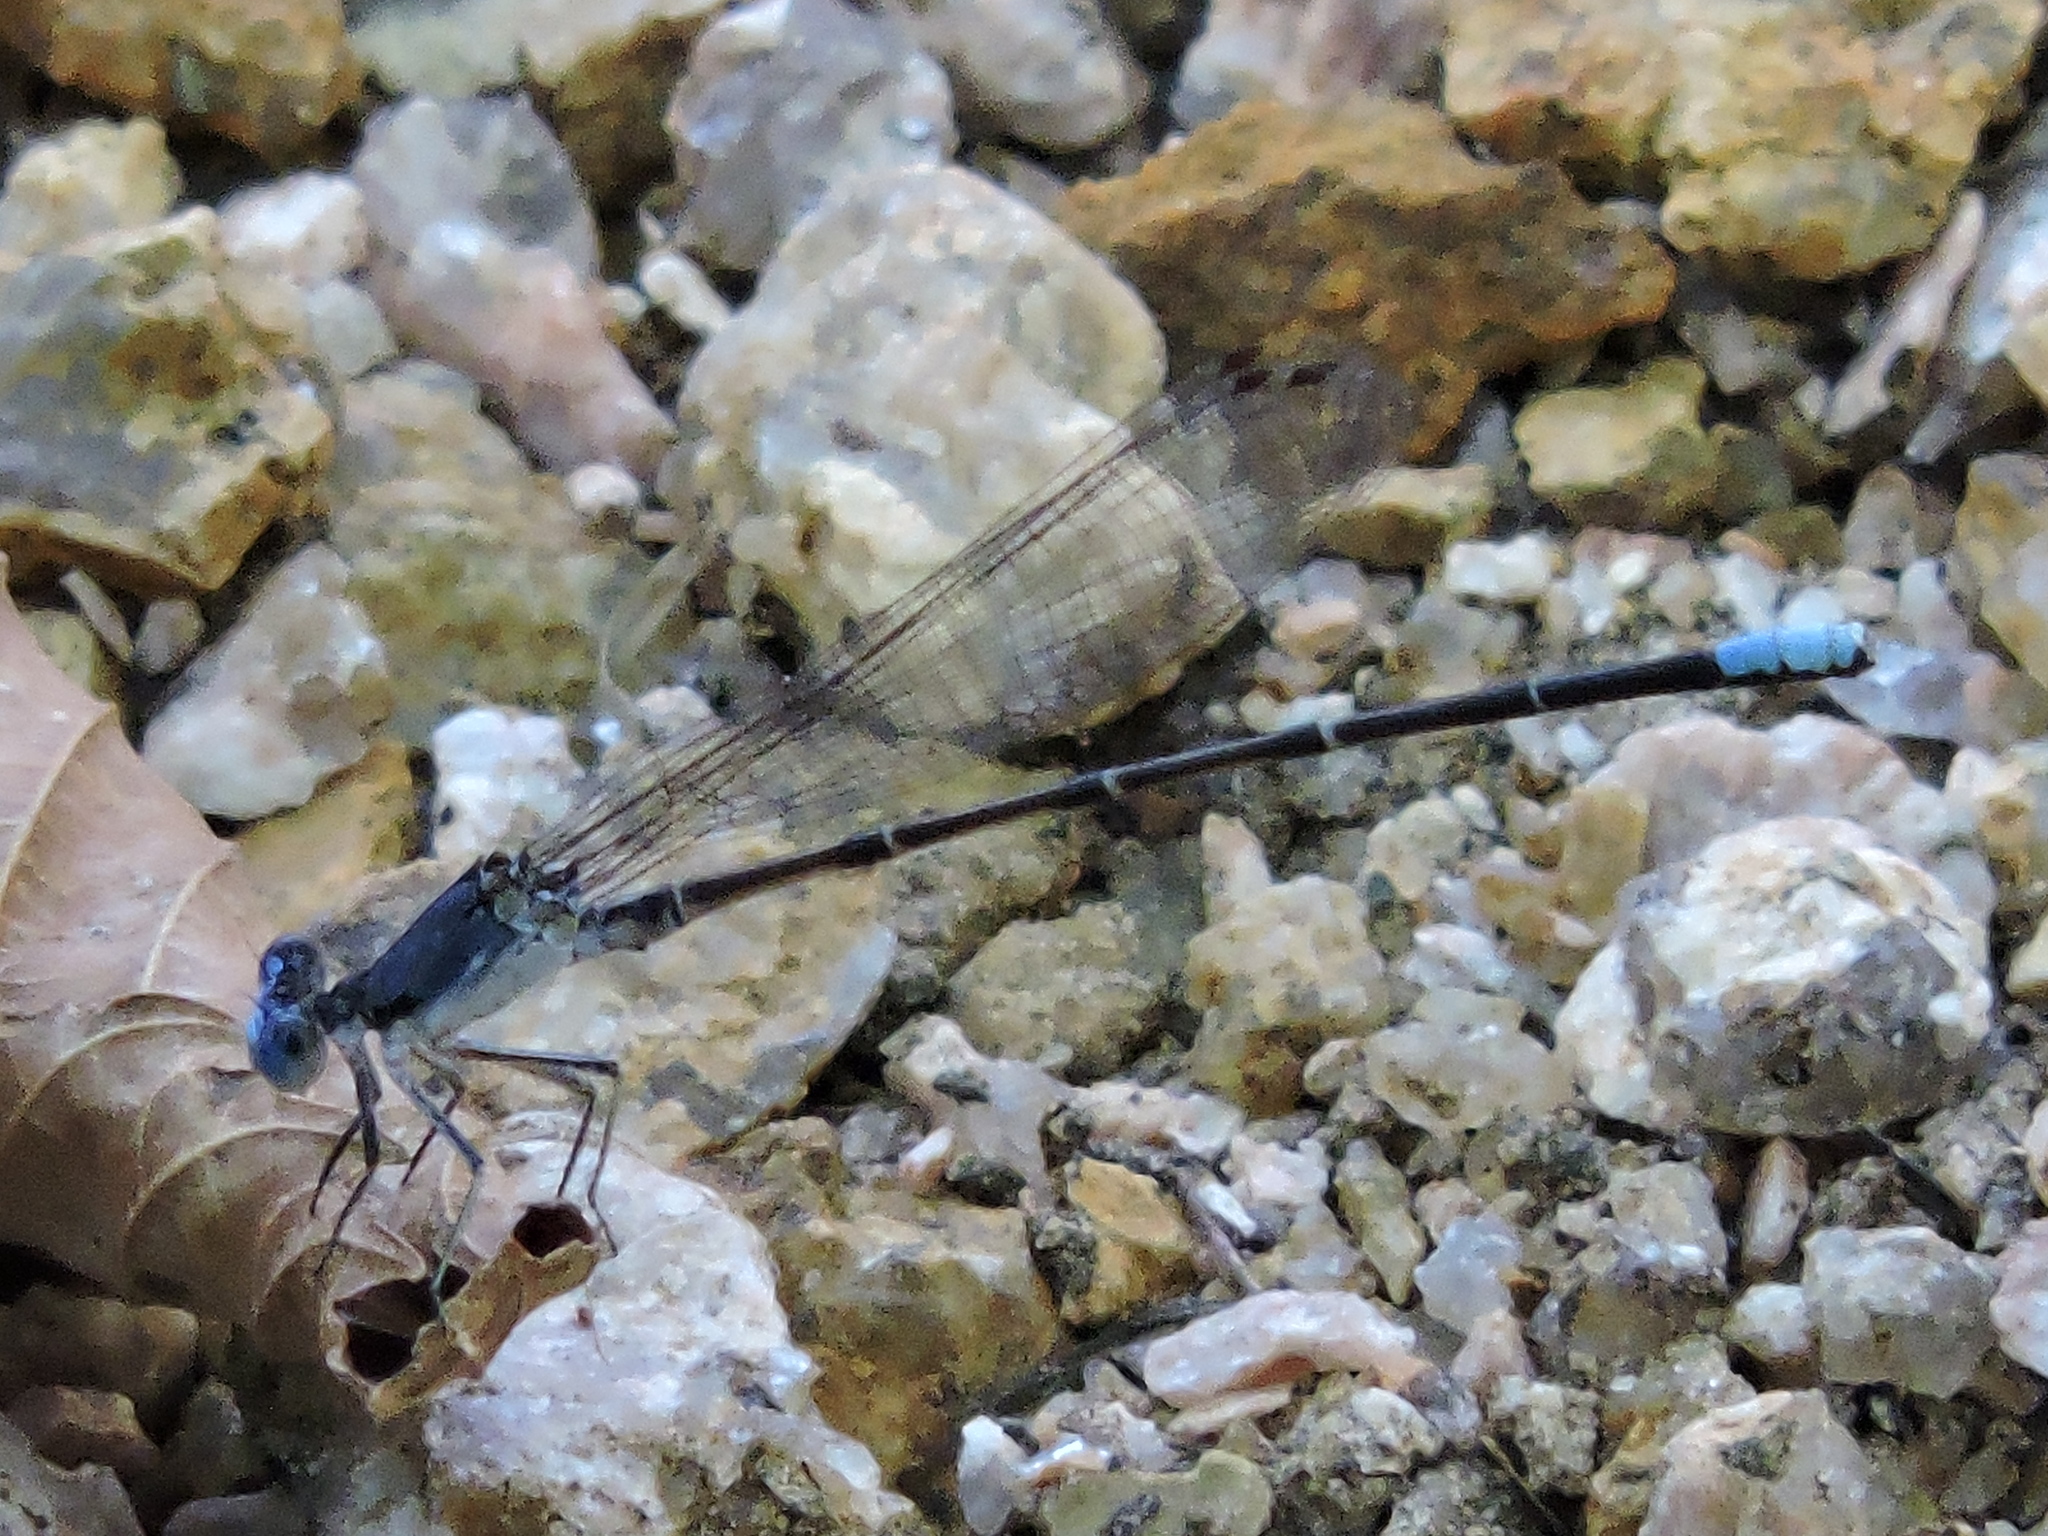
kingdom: Animalia
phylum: Arthropoda
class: Insecta
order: Odonata
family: Coenagrionidae
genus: Argia
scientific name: Argia apicalis
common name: Blue-fronted dancer
